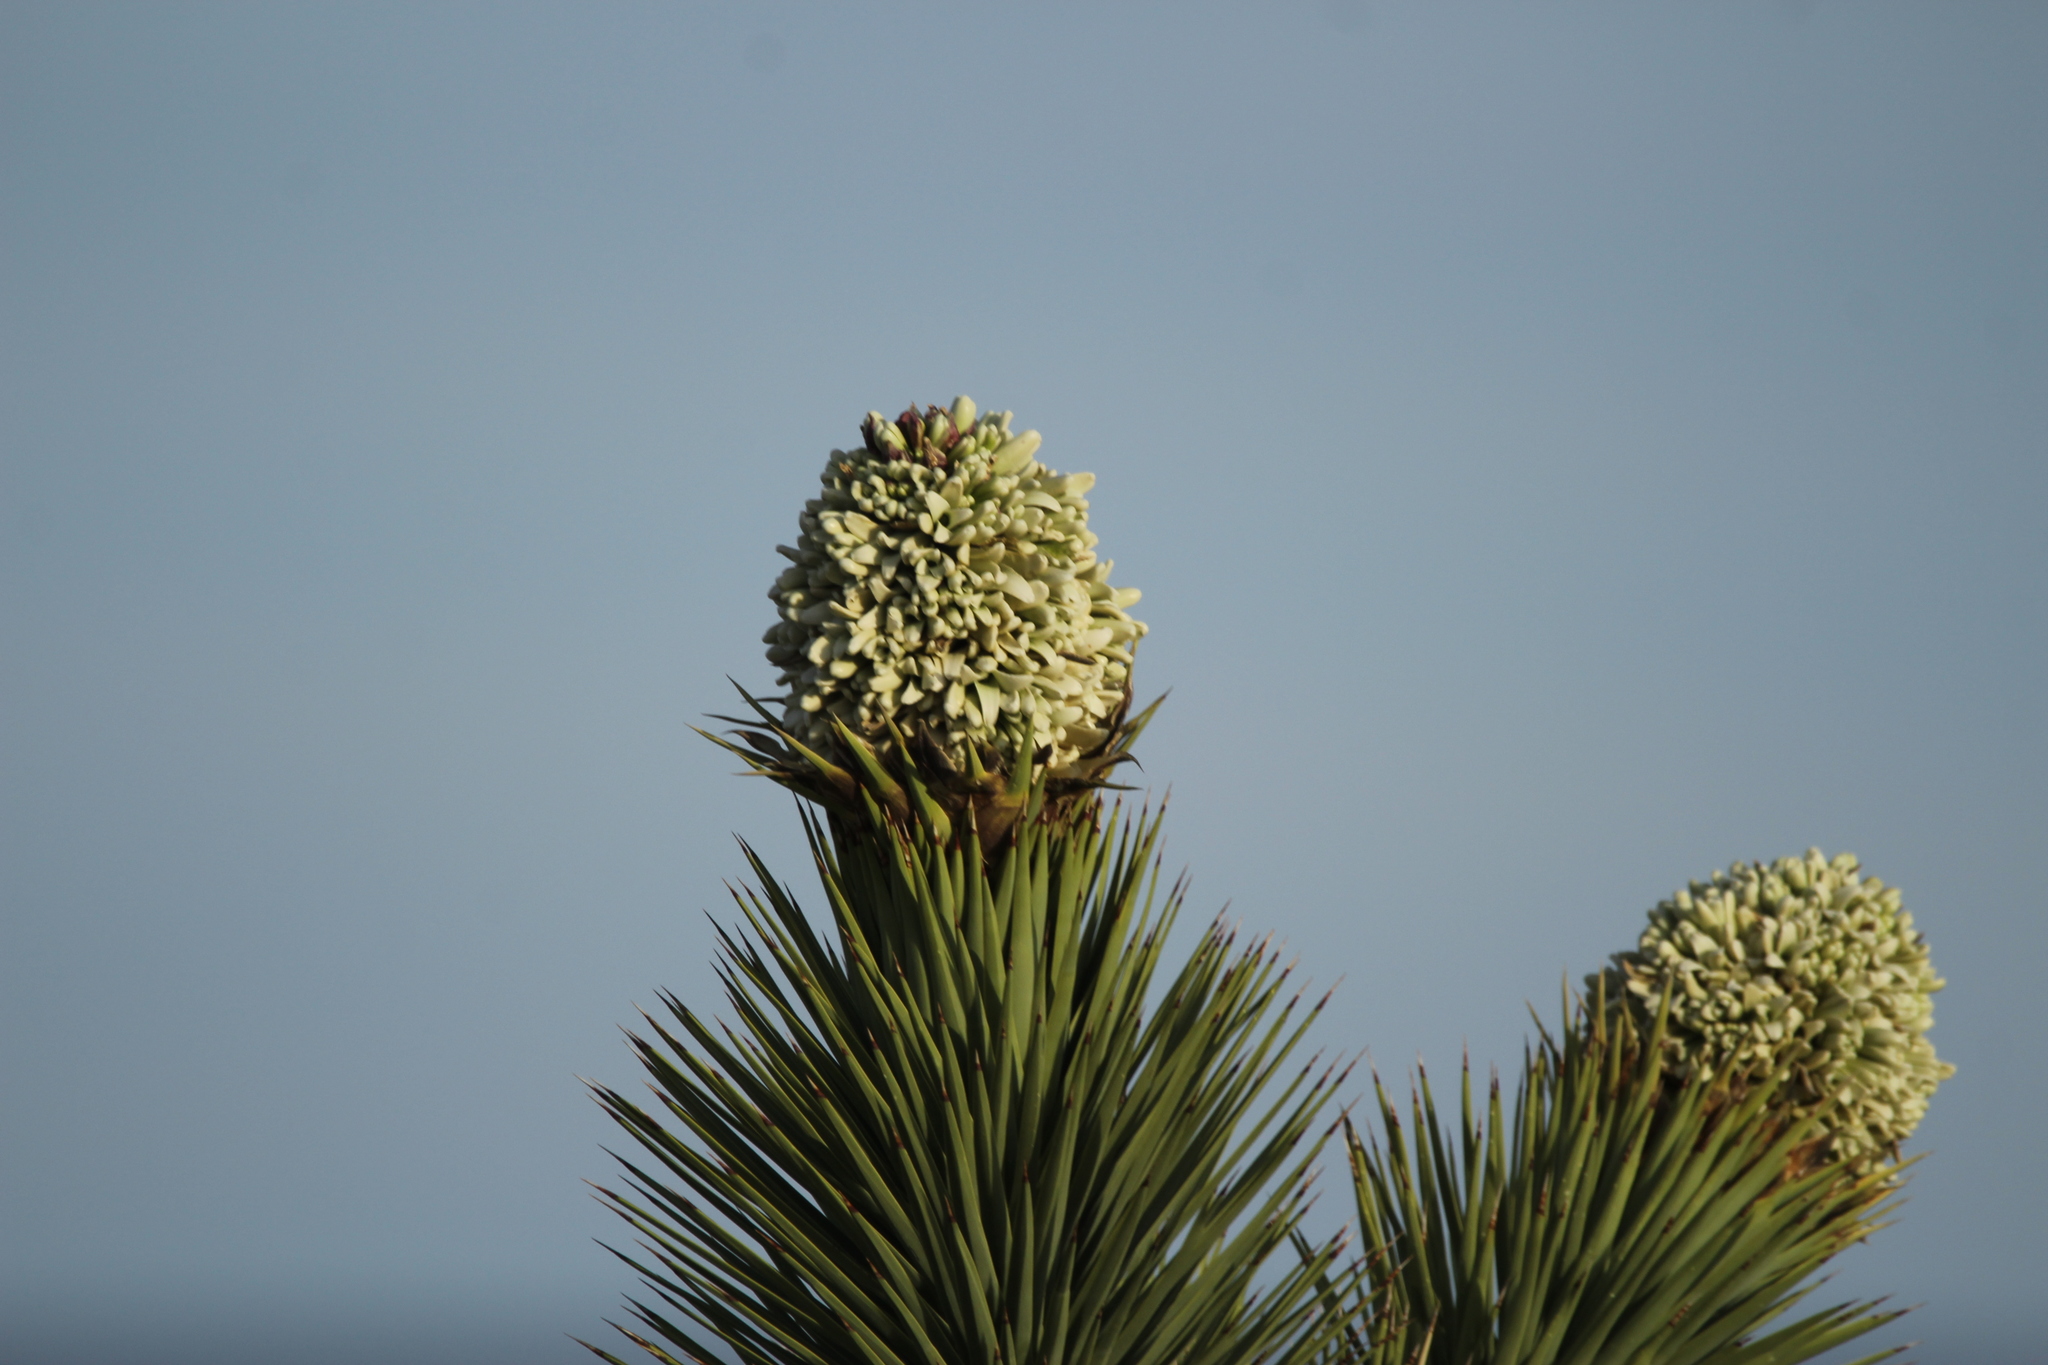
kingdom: Plantae
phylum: Tracheophyta
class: Liliopsida
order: Asparagales
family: Asparagaceae
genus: Yucca
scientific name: Yucca brevifolia
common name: Joshua tree
